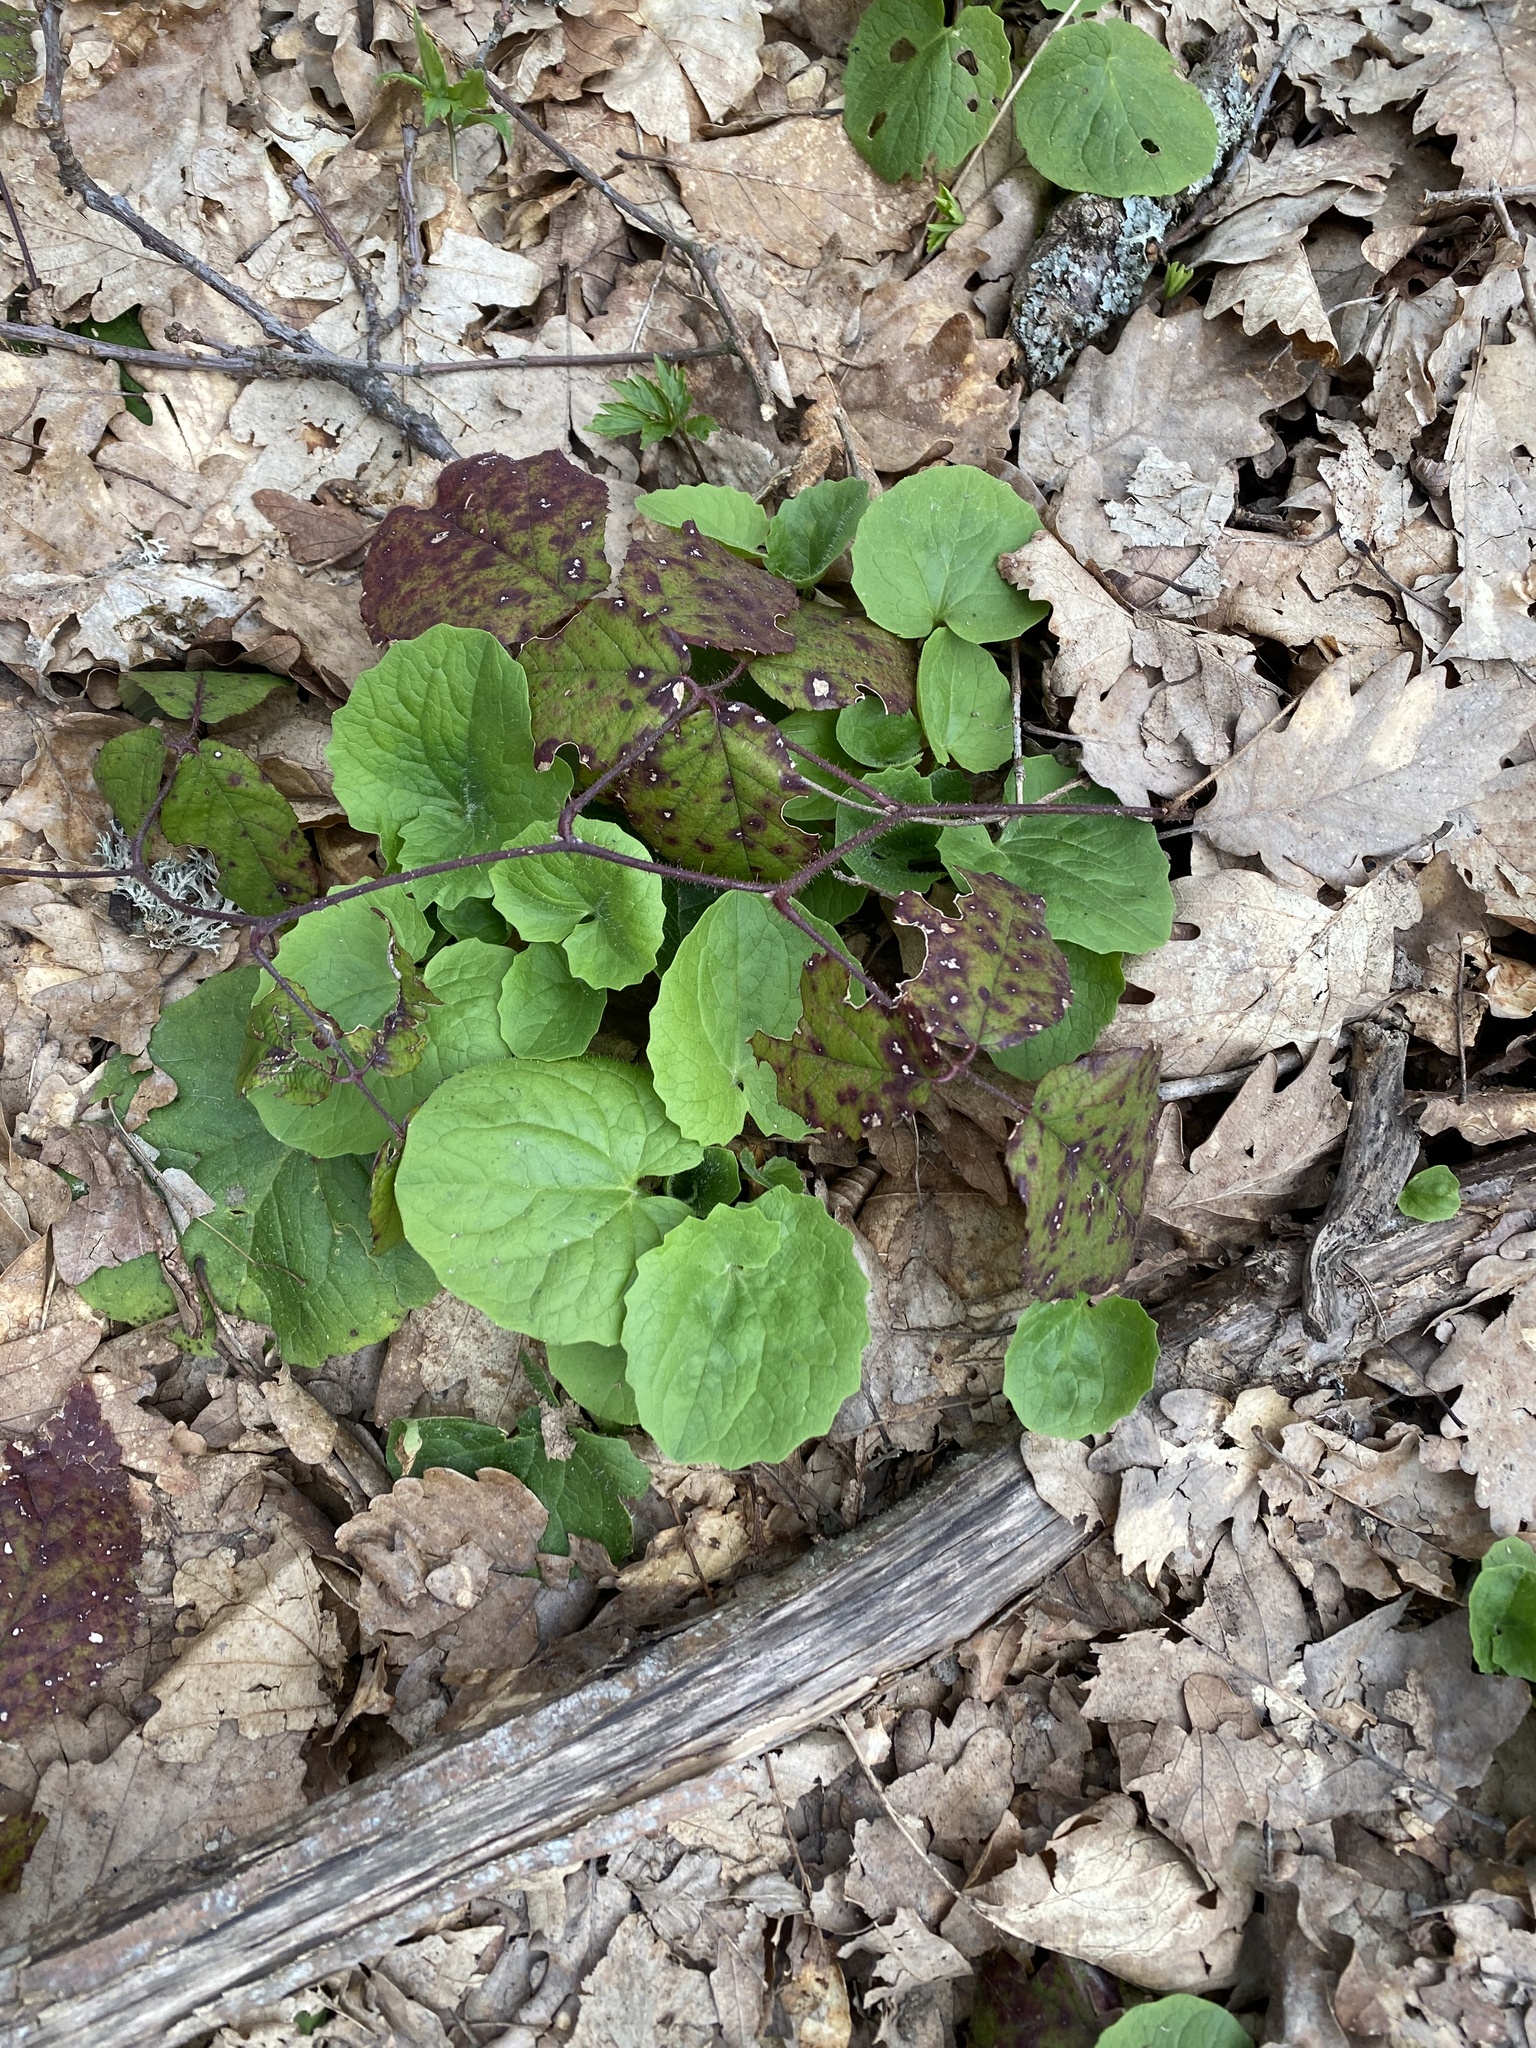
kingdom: Plantae
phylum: Tracheophyta
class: Magnoliopsida
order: Asterales
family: Asteraceae
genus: Doronicum
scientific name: Doronicum
